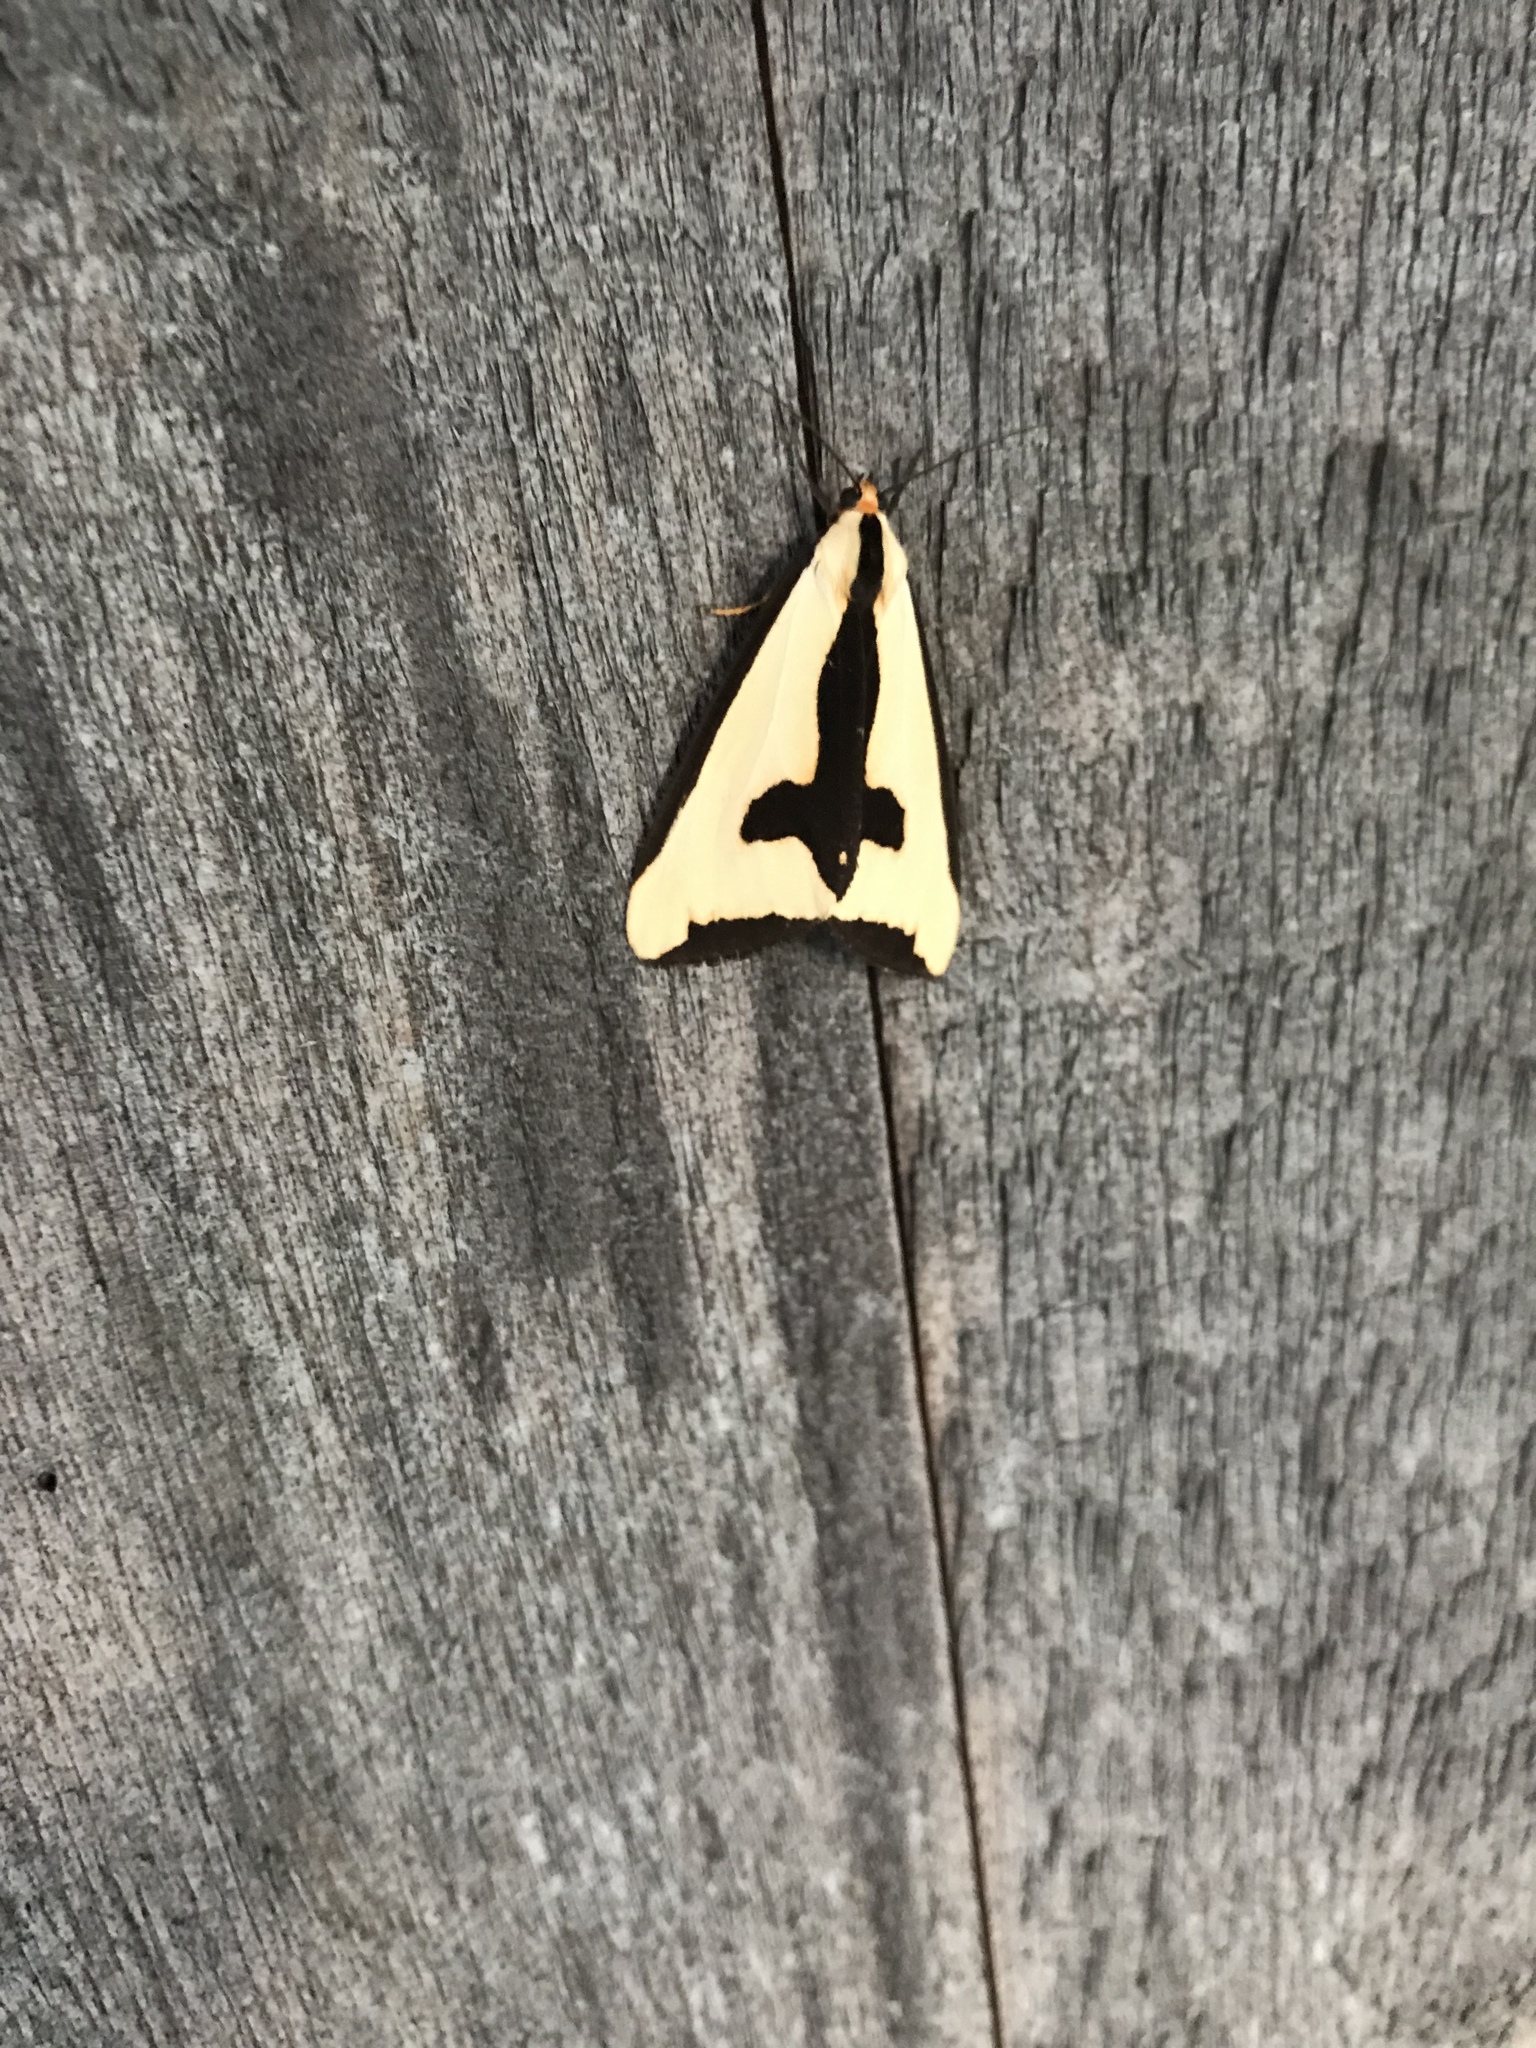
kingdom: Animalia
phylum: Arthropoda
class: Insecta
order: Lepidoptera
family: Erebidae
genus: Haploa
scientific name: Haploa clymene
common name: Clymene moth
